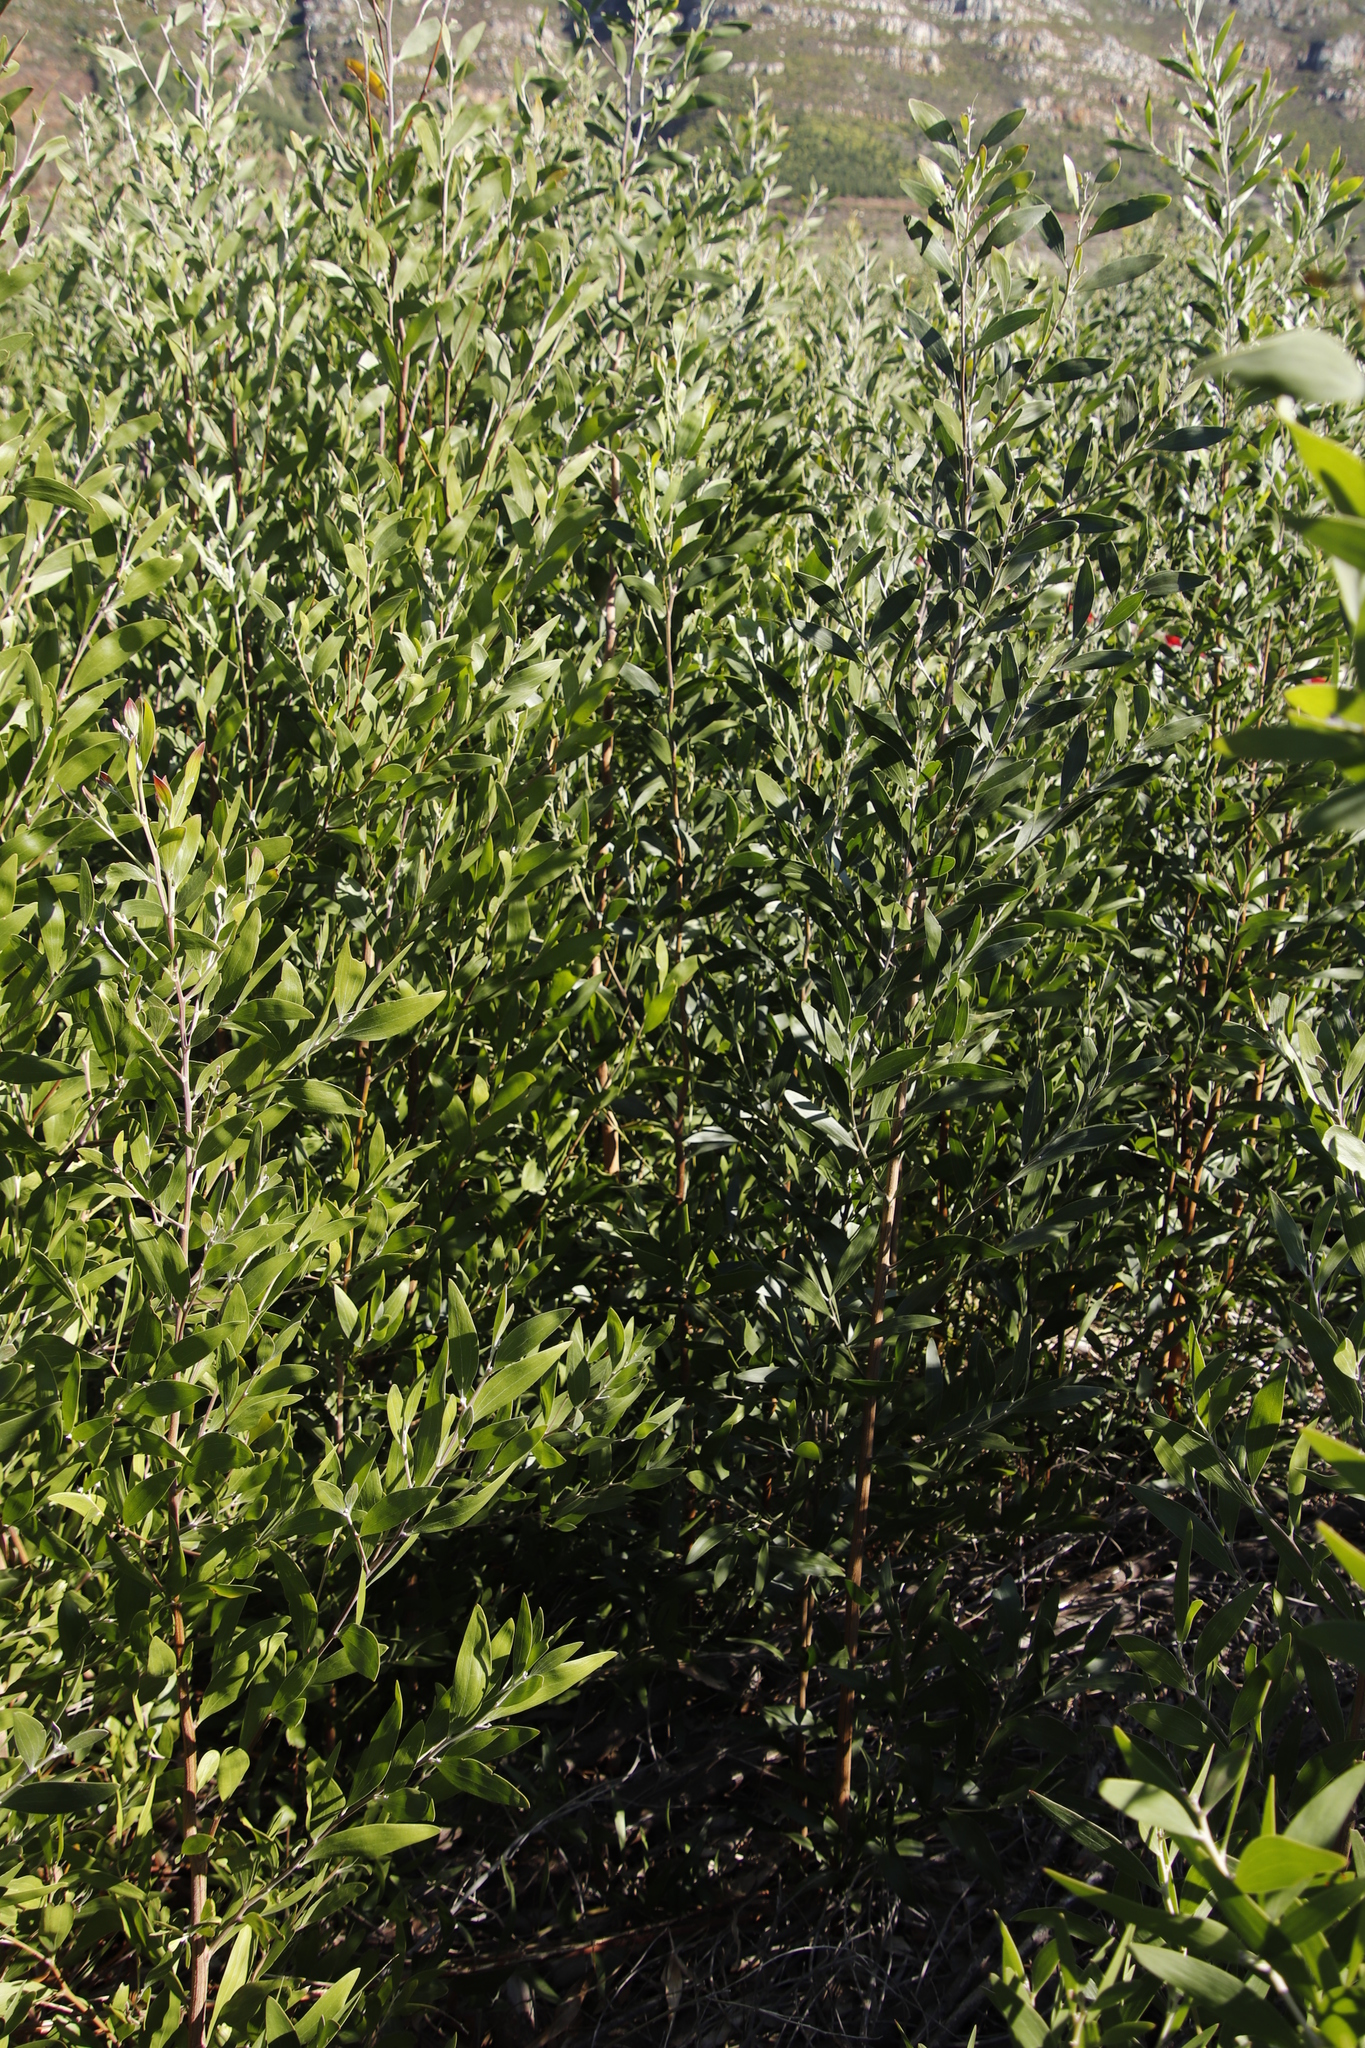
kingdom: Plantae
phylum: Tracheophyta
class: Magnoliopsida
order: Fabales
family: Fabaceae
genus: Acacia
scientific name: Acacia melanoxylon
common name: Blackwood
